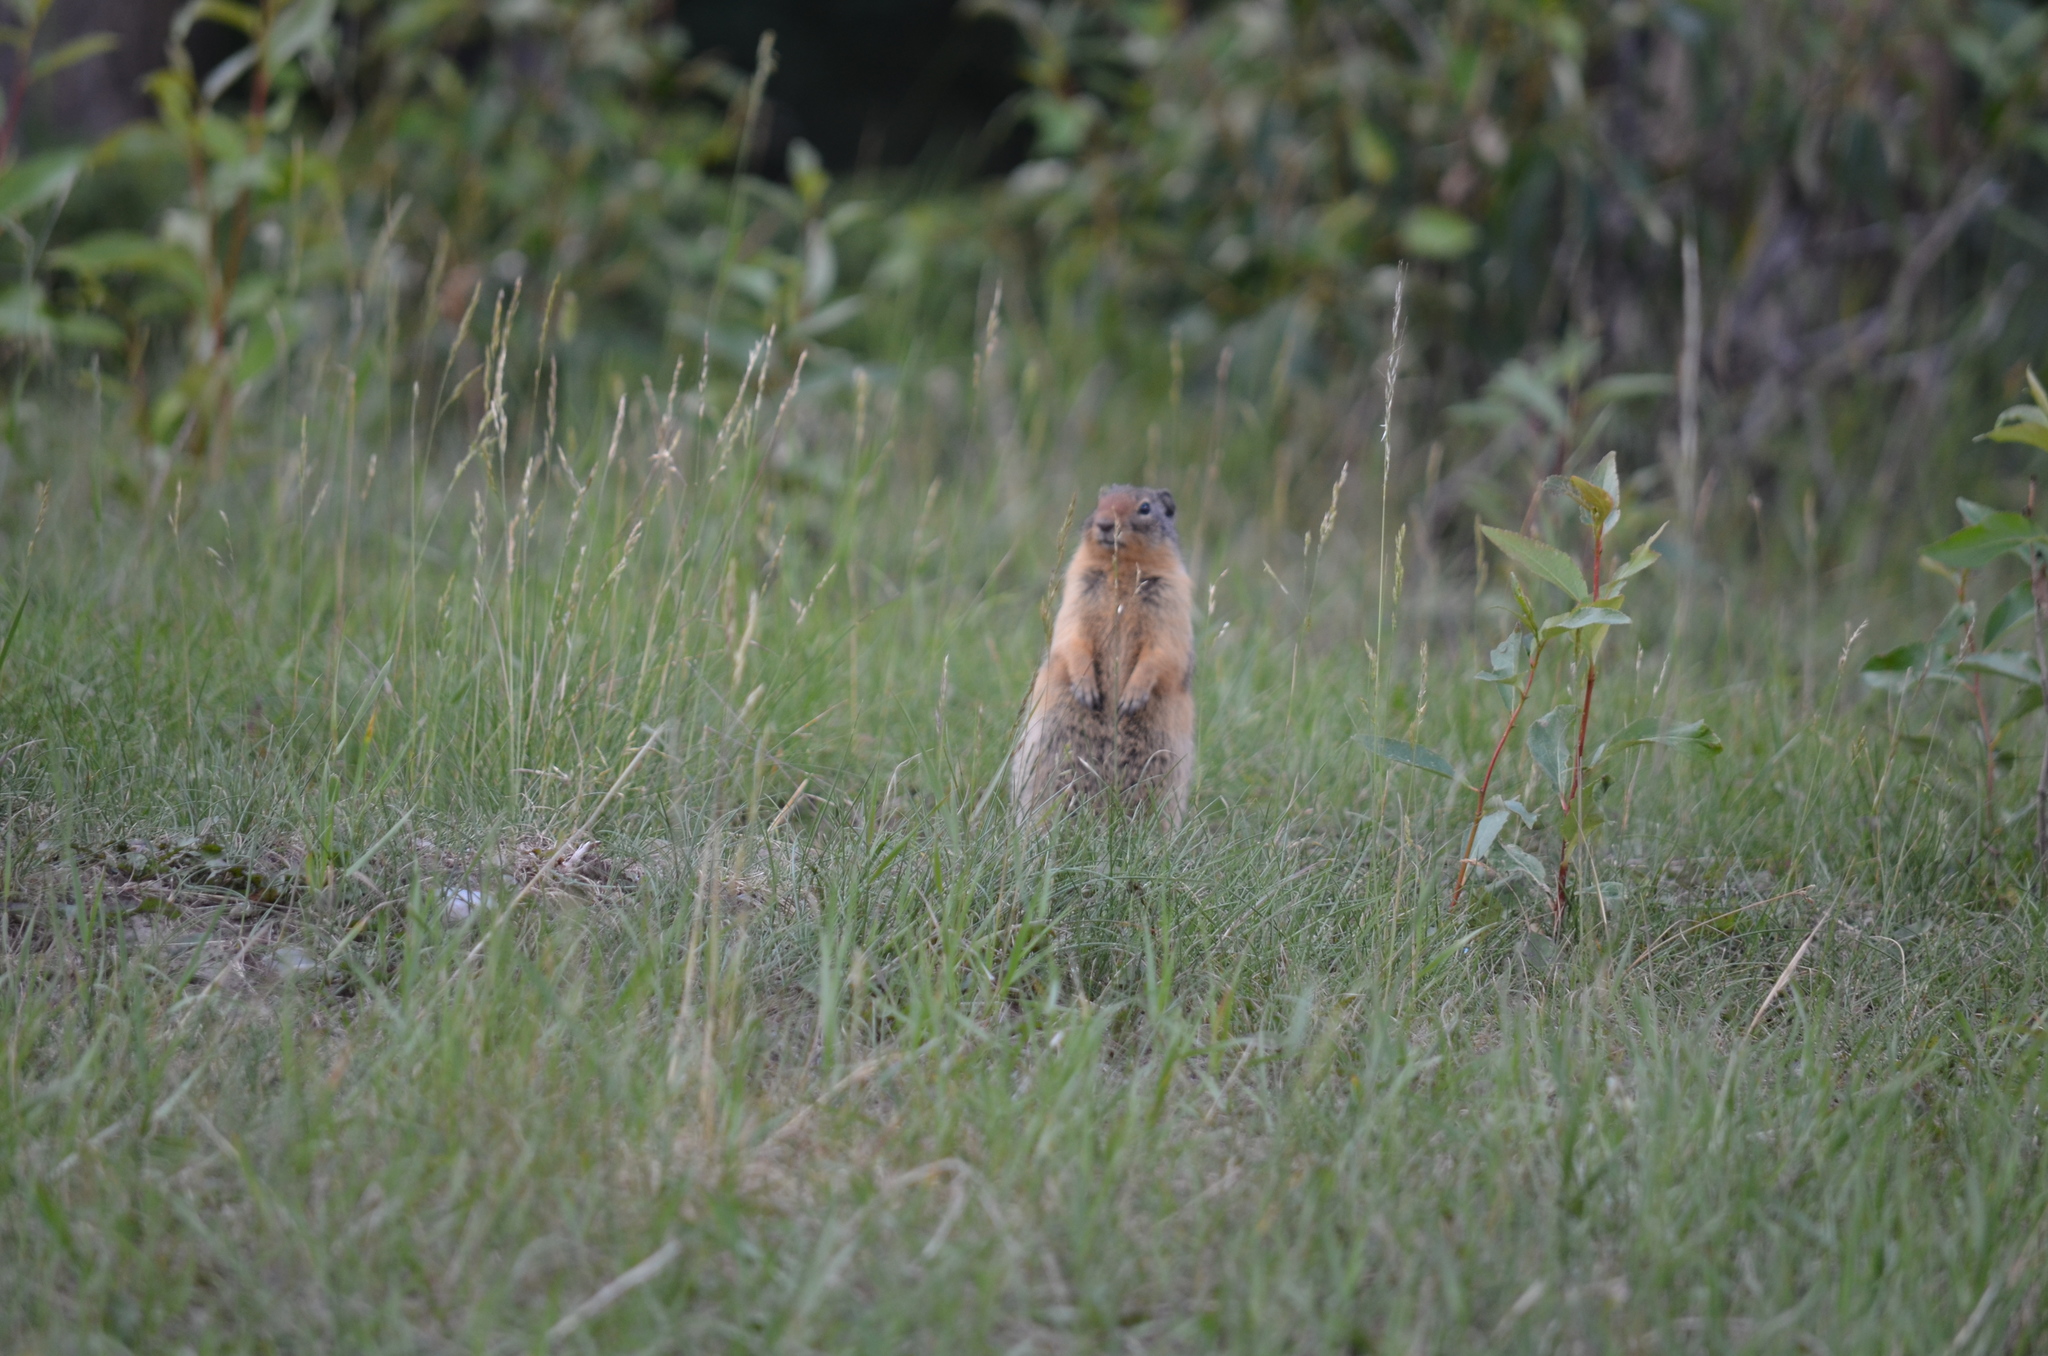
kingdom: Animalia
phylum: Chordata
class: Mammalia
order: Rodentia
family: Sciuridae
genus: Urocitellus
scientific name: Urocitellus columbianus
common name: Columbian ground squirrel
